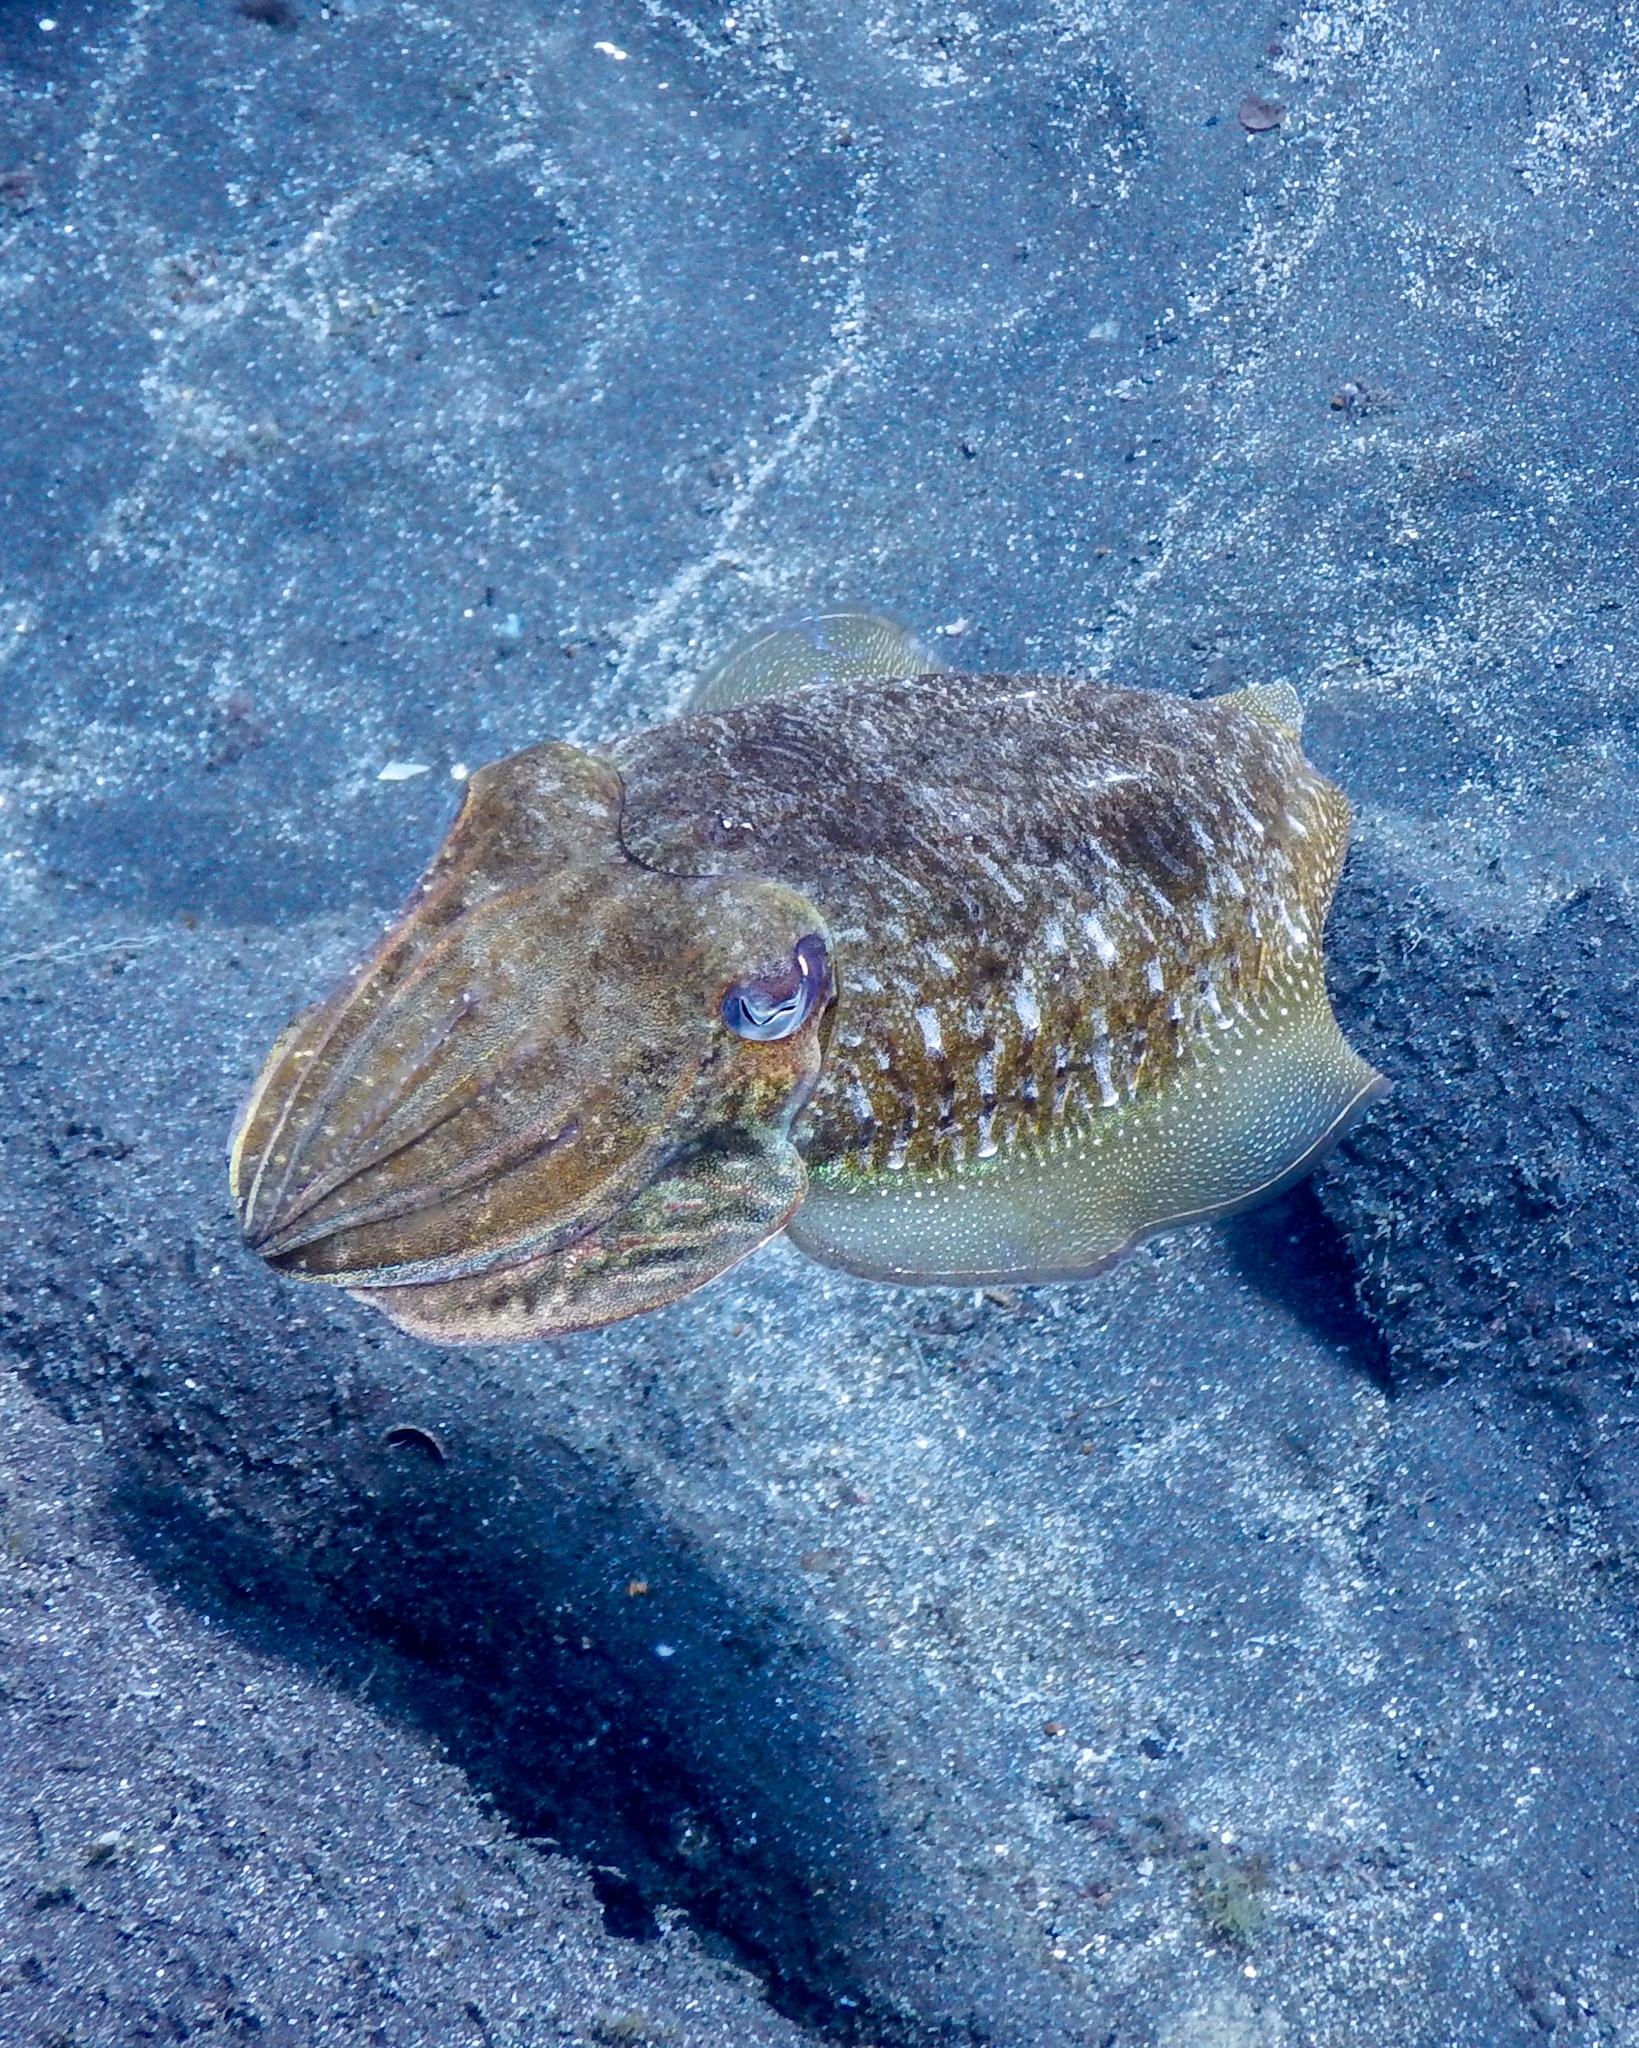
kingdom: Animalia
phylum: Mollusca
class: Cephalopoda
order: Sepiida
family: Sepiidae
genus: Sepia
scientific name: Sepia officinalis
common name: Common cuttlefish
